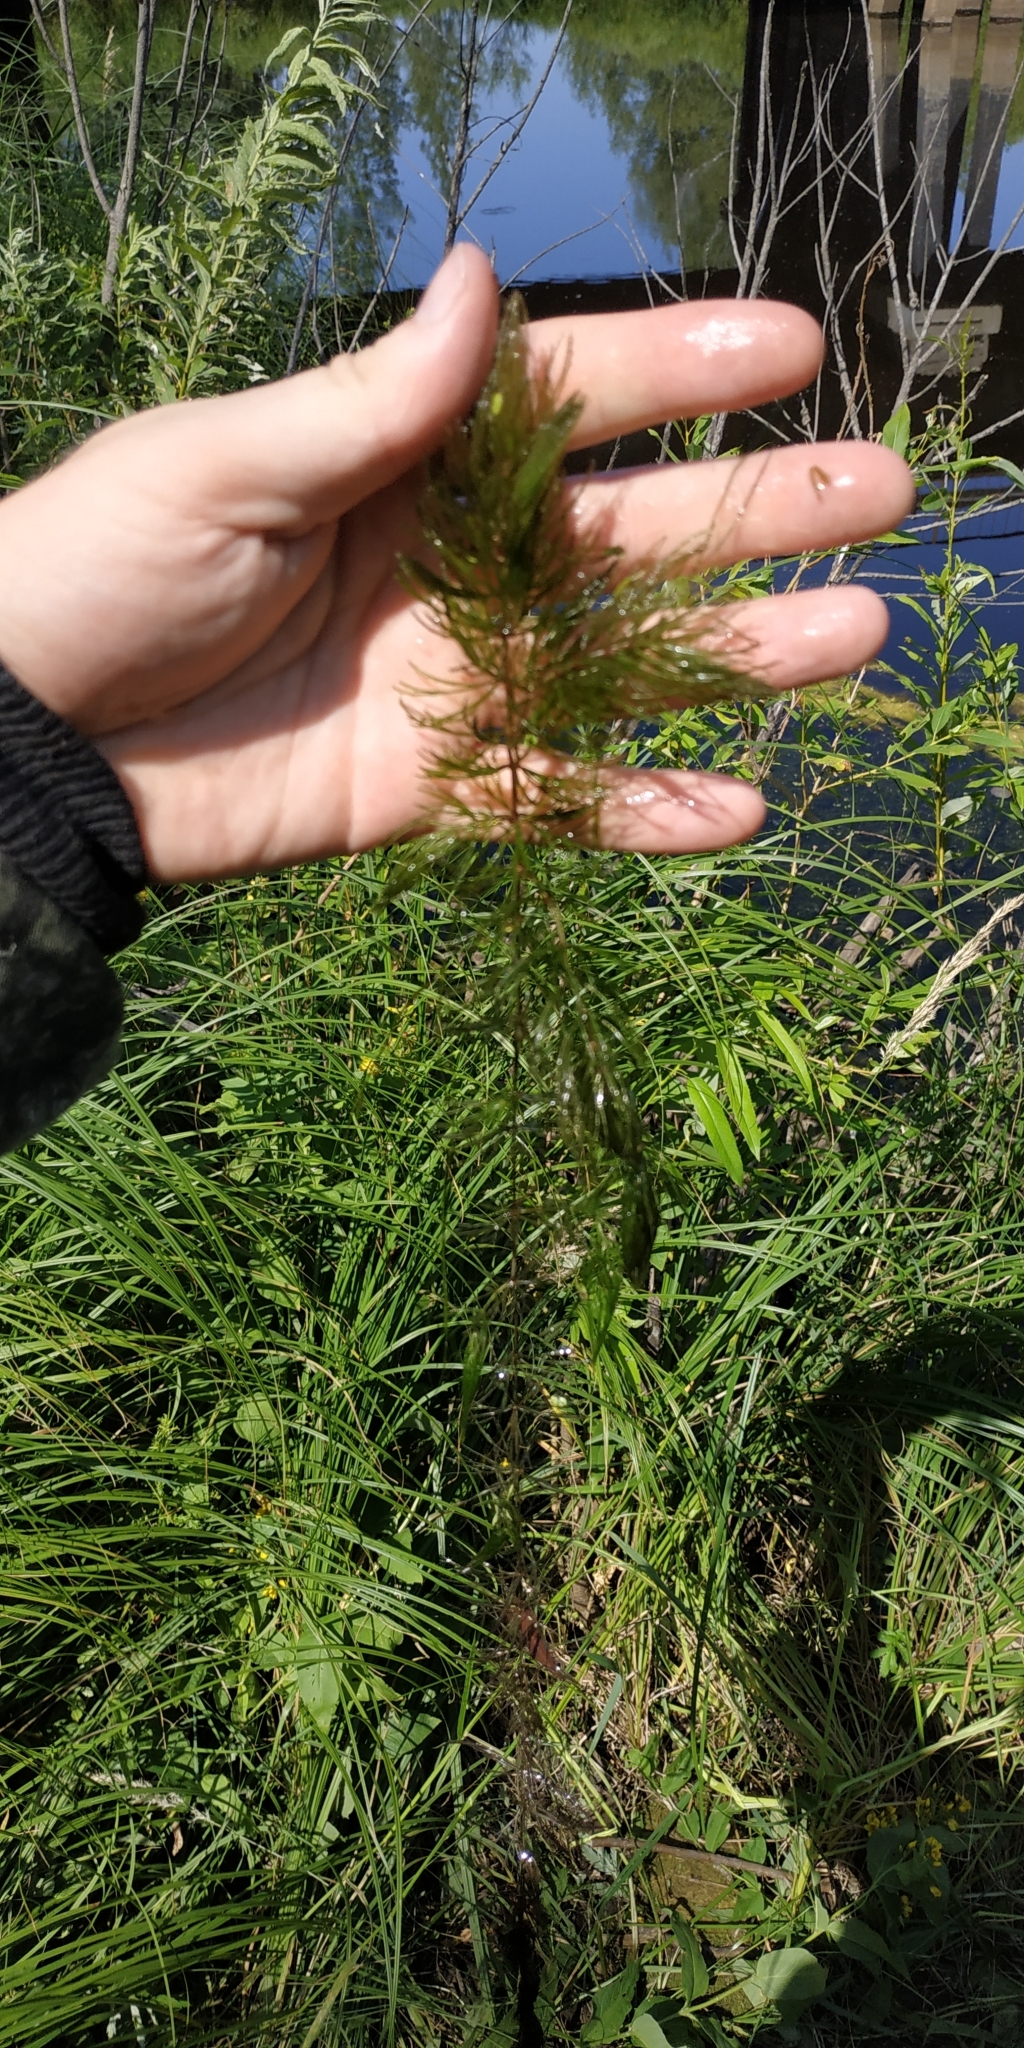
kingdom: Plantae
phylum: Tracheophyta
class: Magnoliopsida
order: Ceratophyllales
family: Ceratophyllaceae
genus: Ceratophyllum
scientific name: Ceratophyllum demersum
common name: Rigid hornwort
